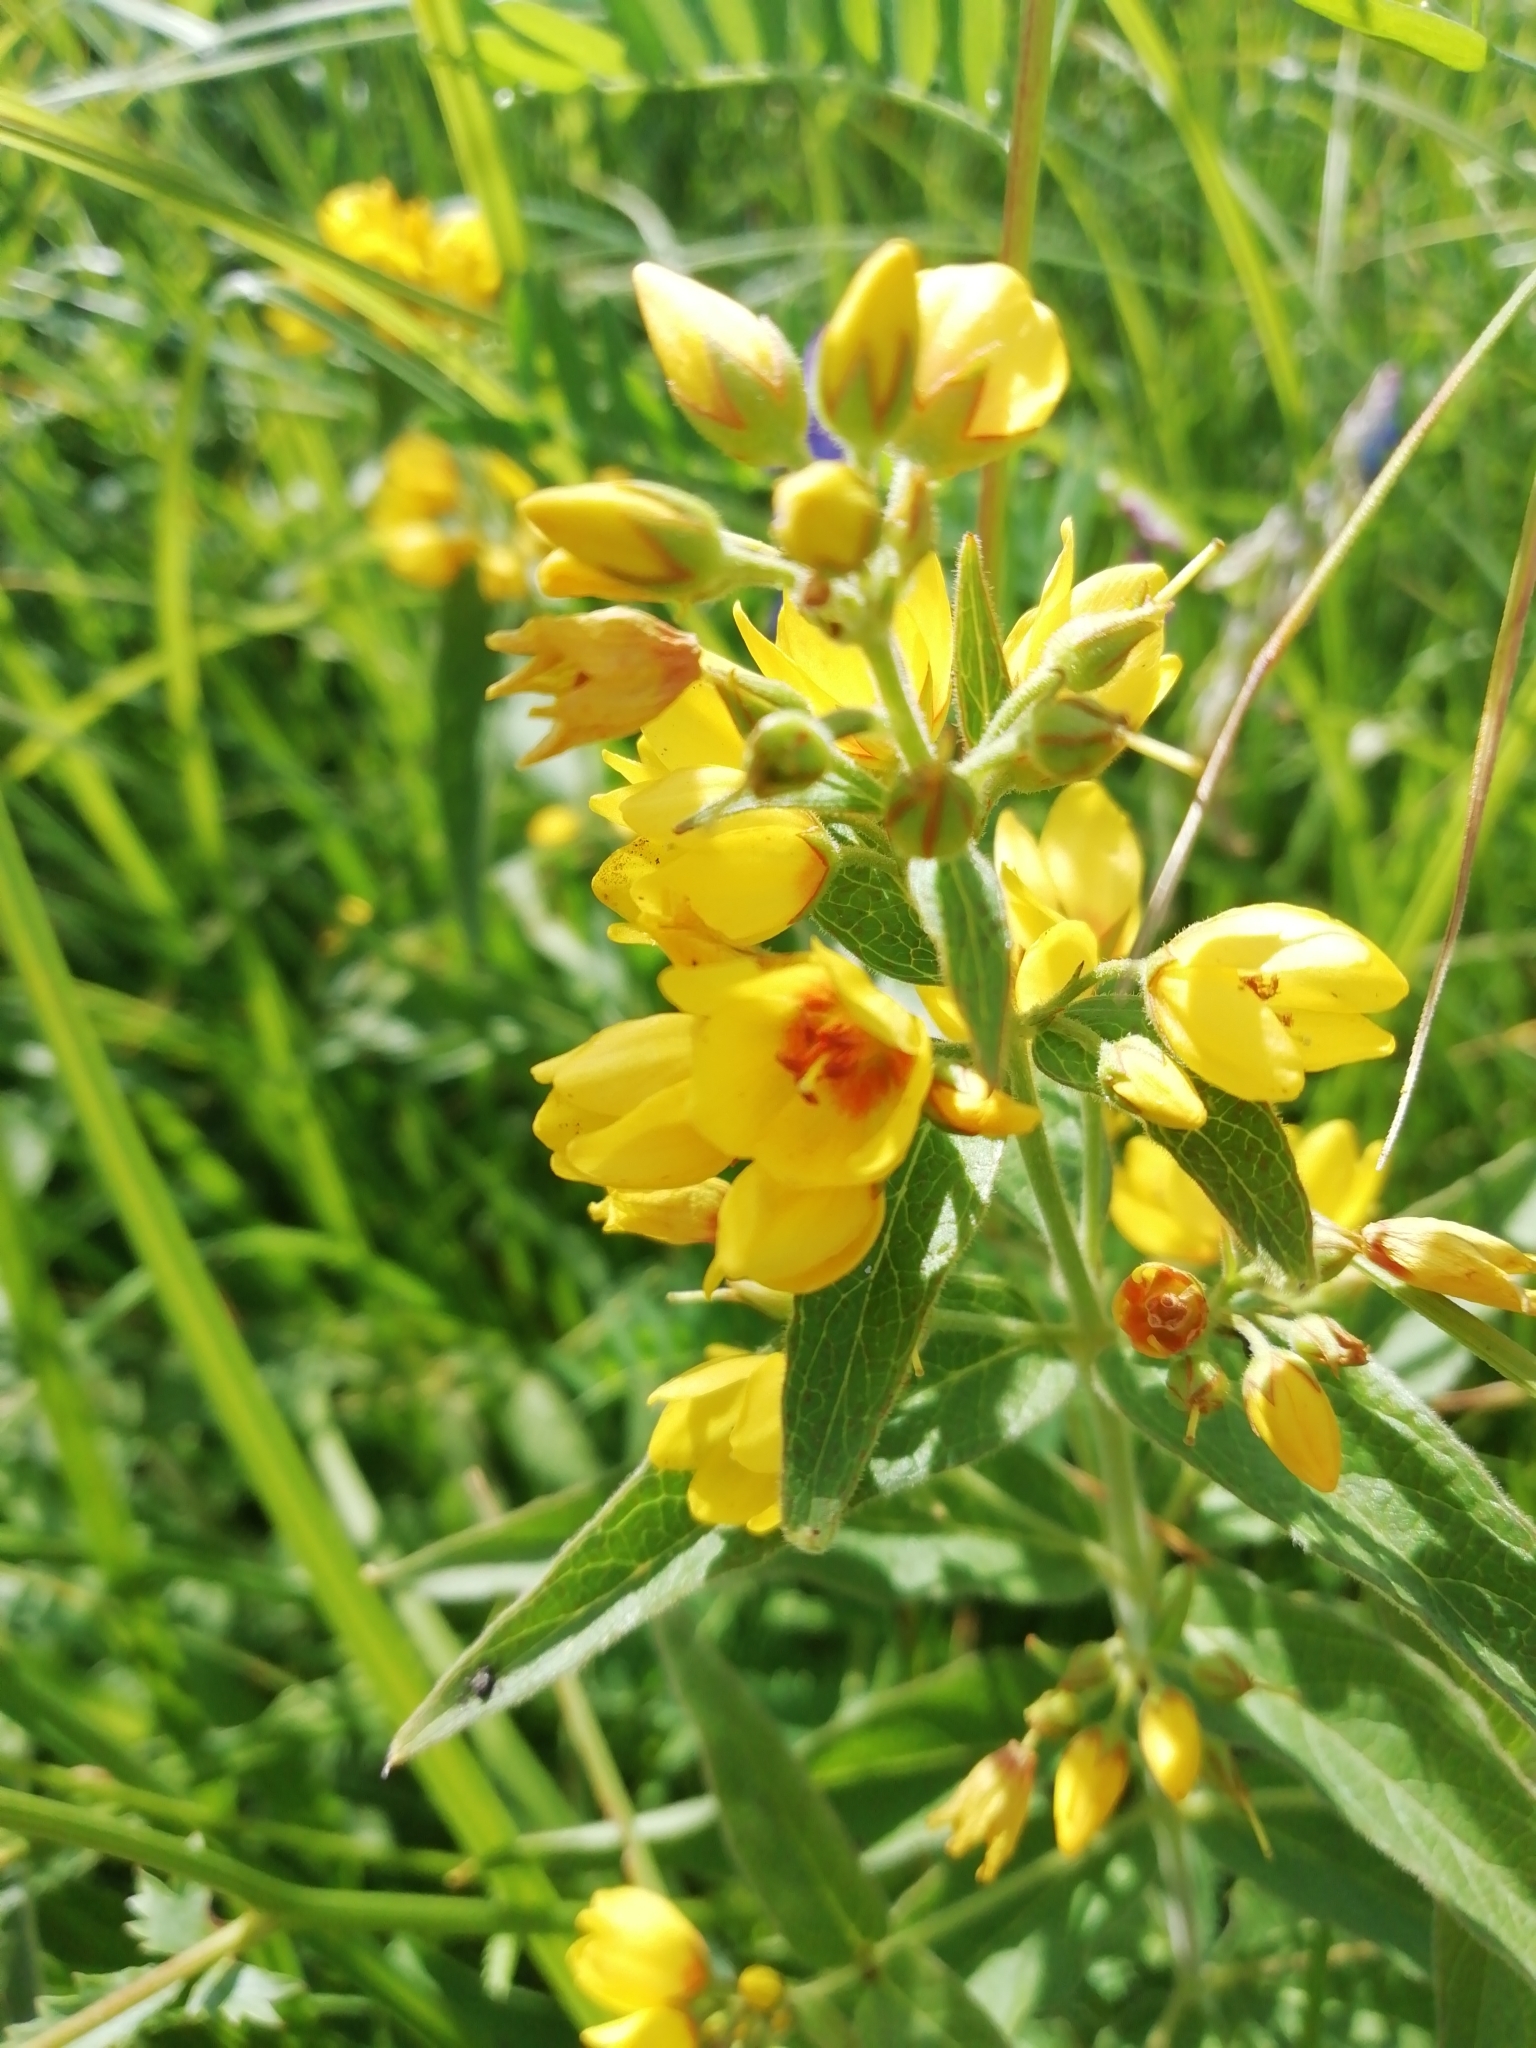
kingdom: Plantae
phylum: Tracheophyta
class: Magnoliopsida
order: Ericales
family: Primulaceae
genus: Lysimachia
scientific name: Lysimachia vulgaris
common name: Yellow loosestrife
